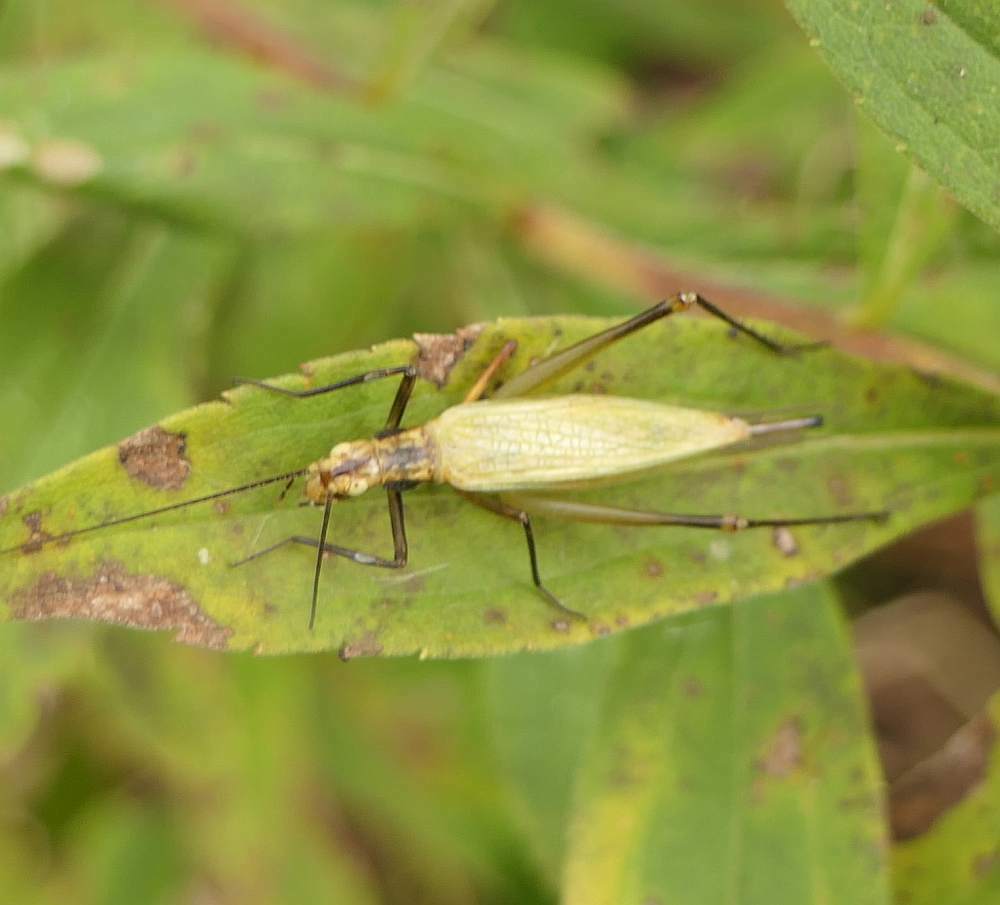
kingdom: Animalia
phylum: Arthropoda
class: Insecta
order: Orthoptera
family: Gryllidae
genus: Oecanthus
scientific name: Oecanthus nigricornis
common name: Black-horned tree cricket
